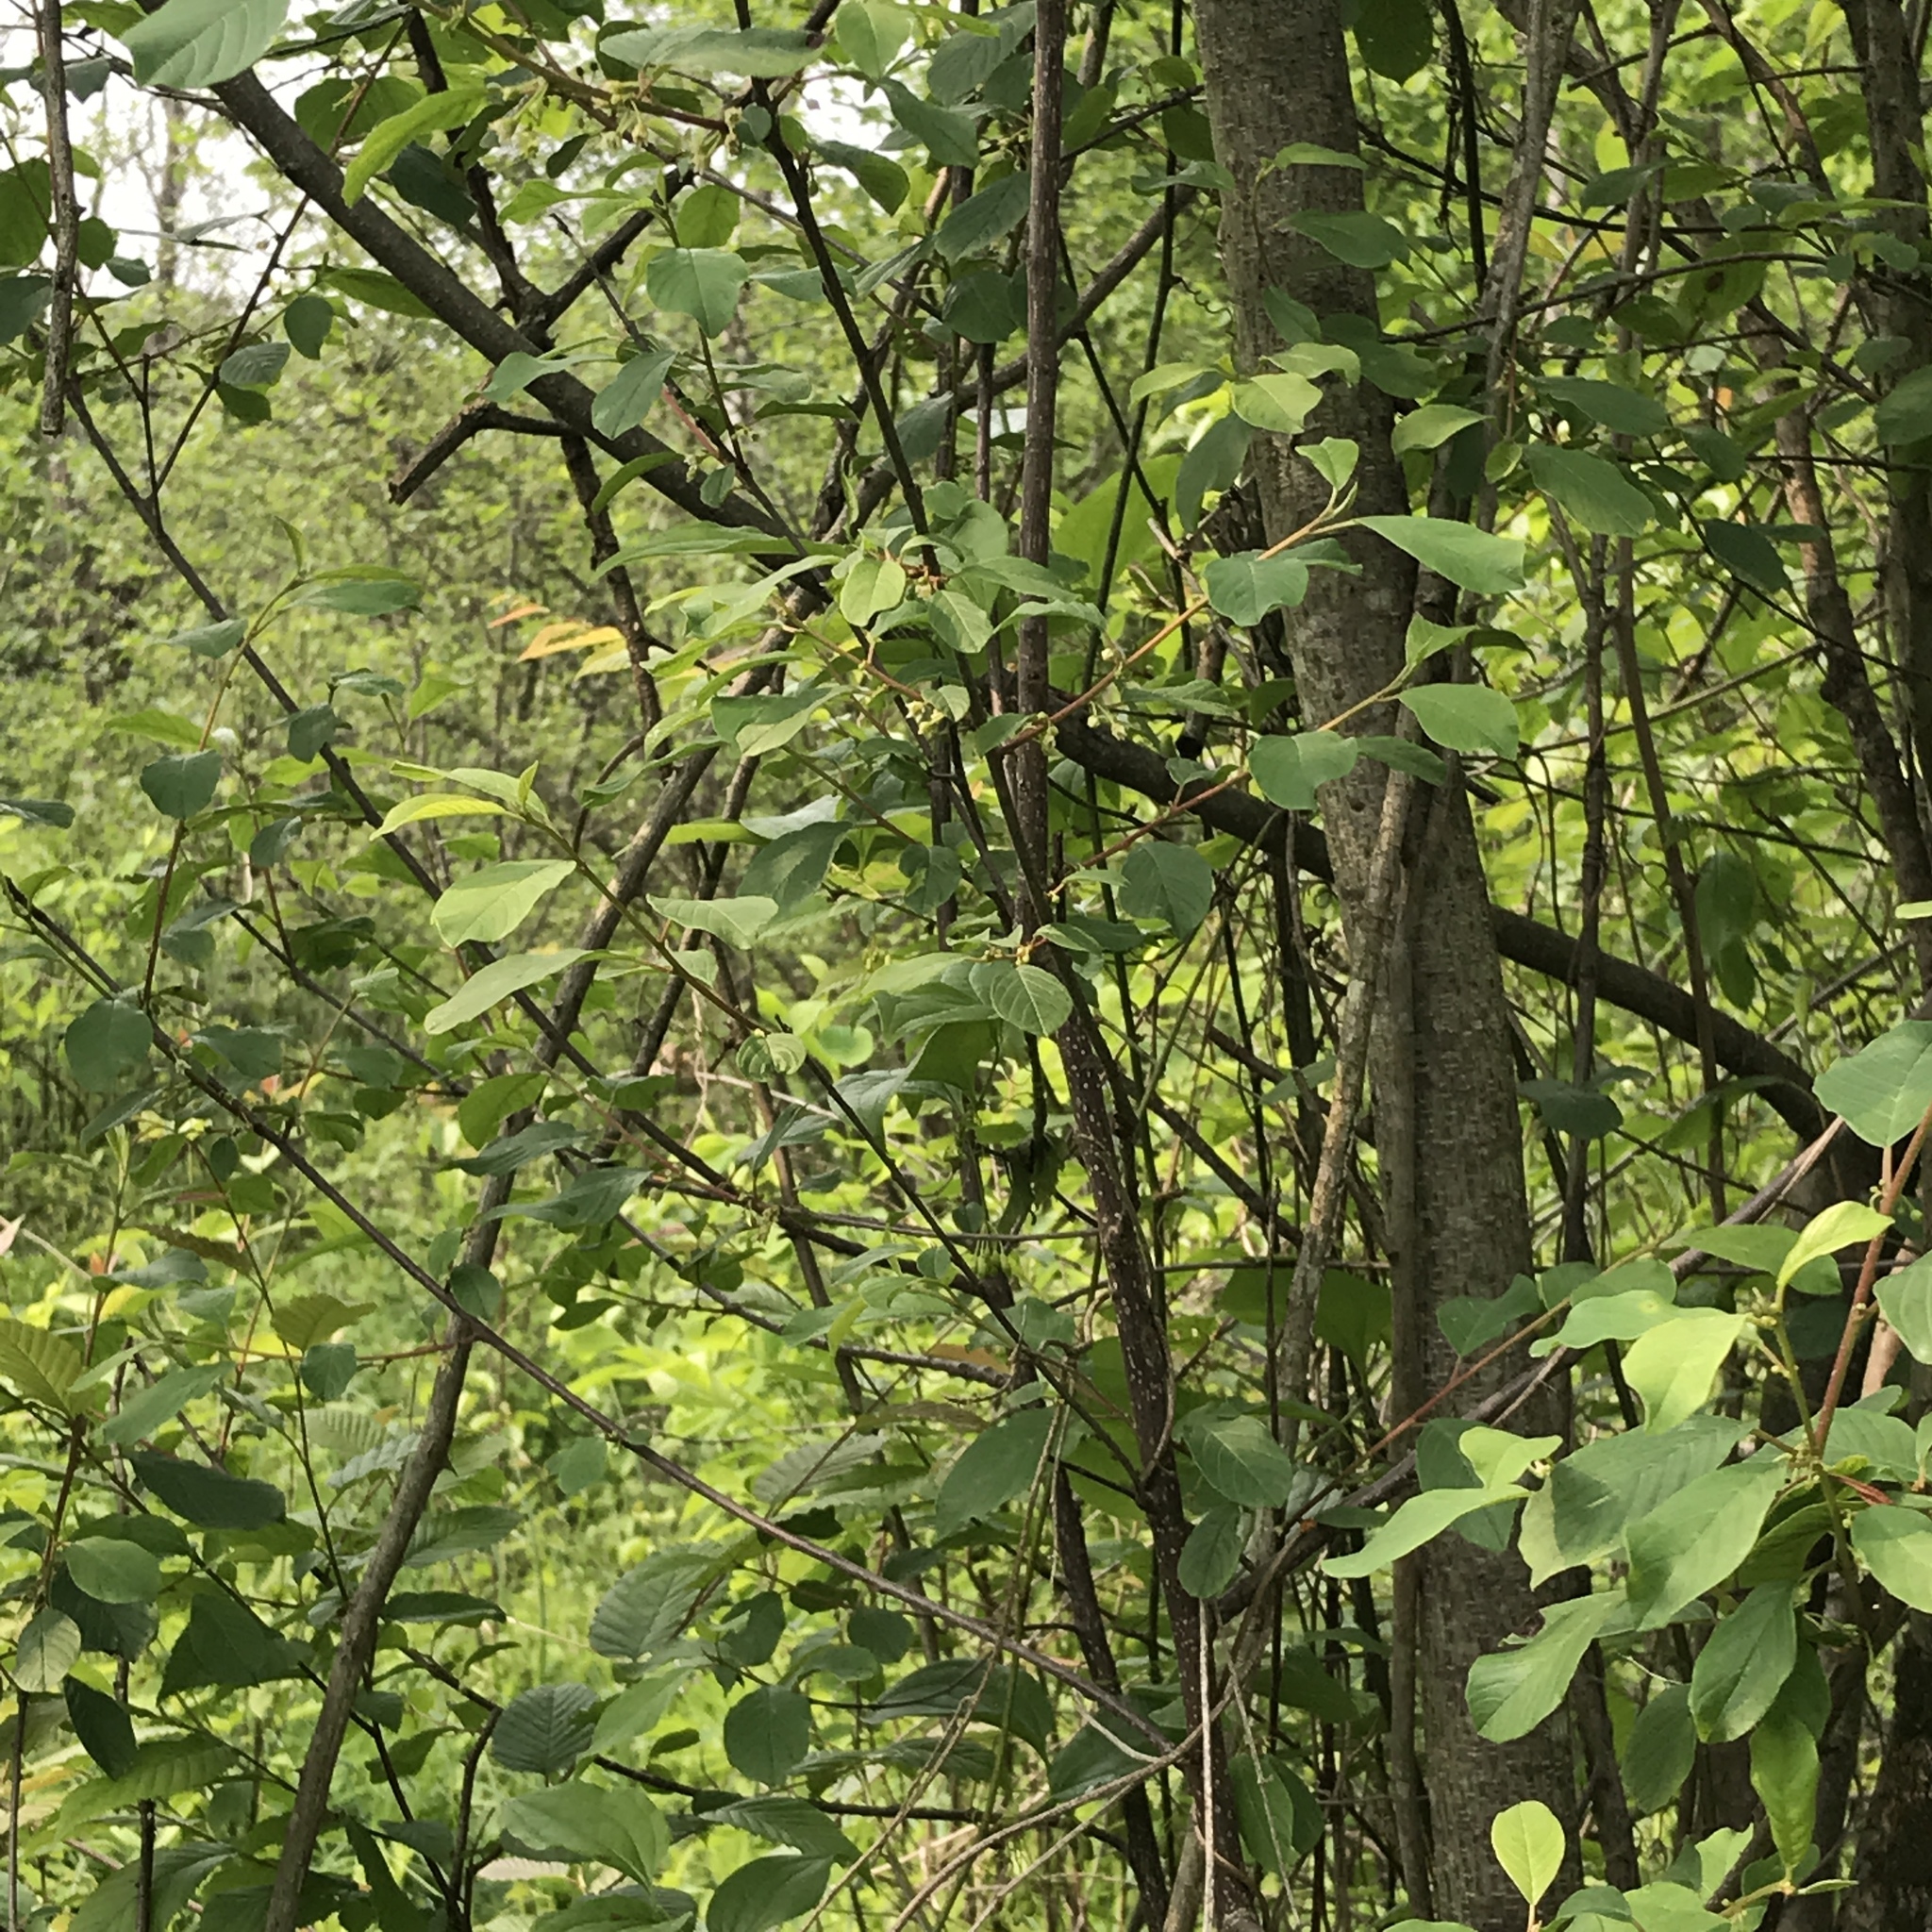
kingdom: Plantae
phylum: Tracheophyta
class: Magnoliopsida
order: Rosales
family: Rhamnaceae
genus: Frangula
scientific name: Frangula alnus
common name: Alder buckthorn
